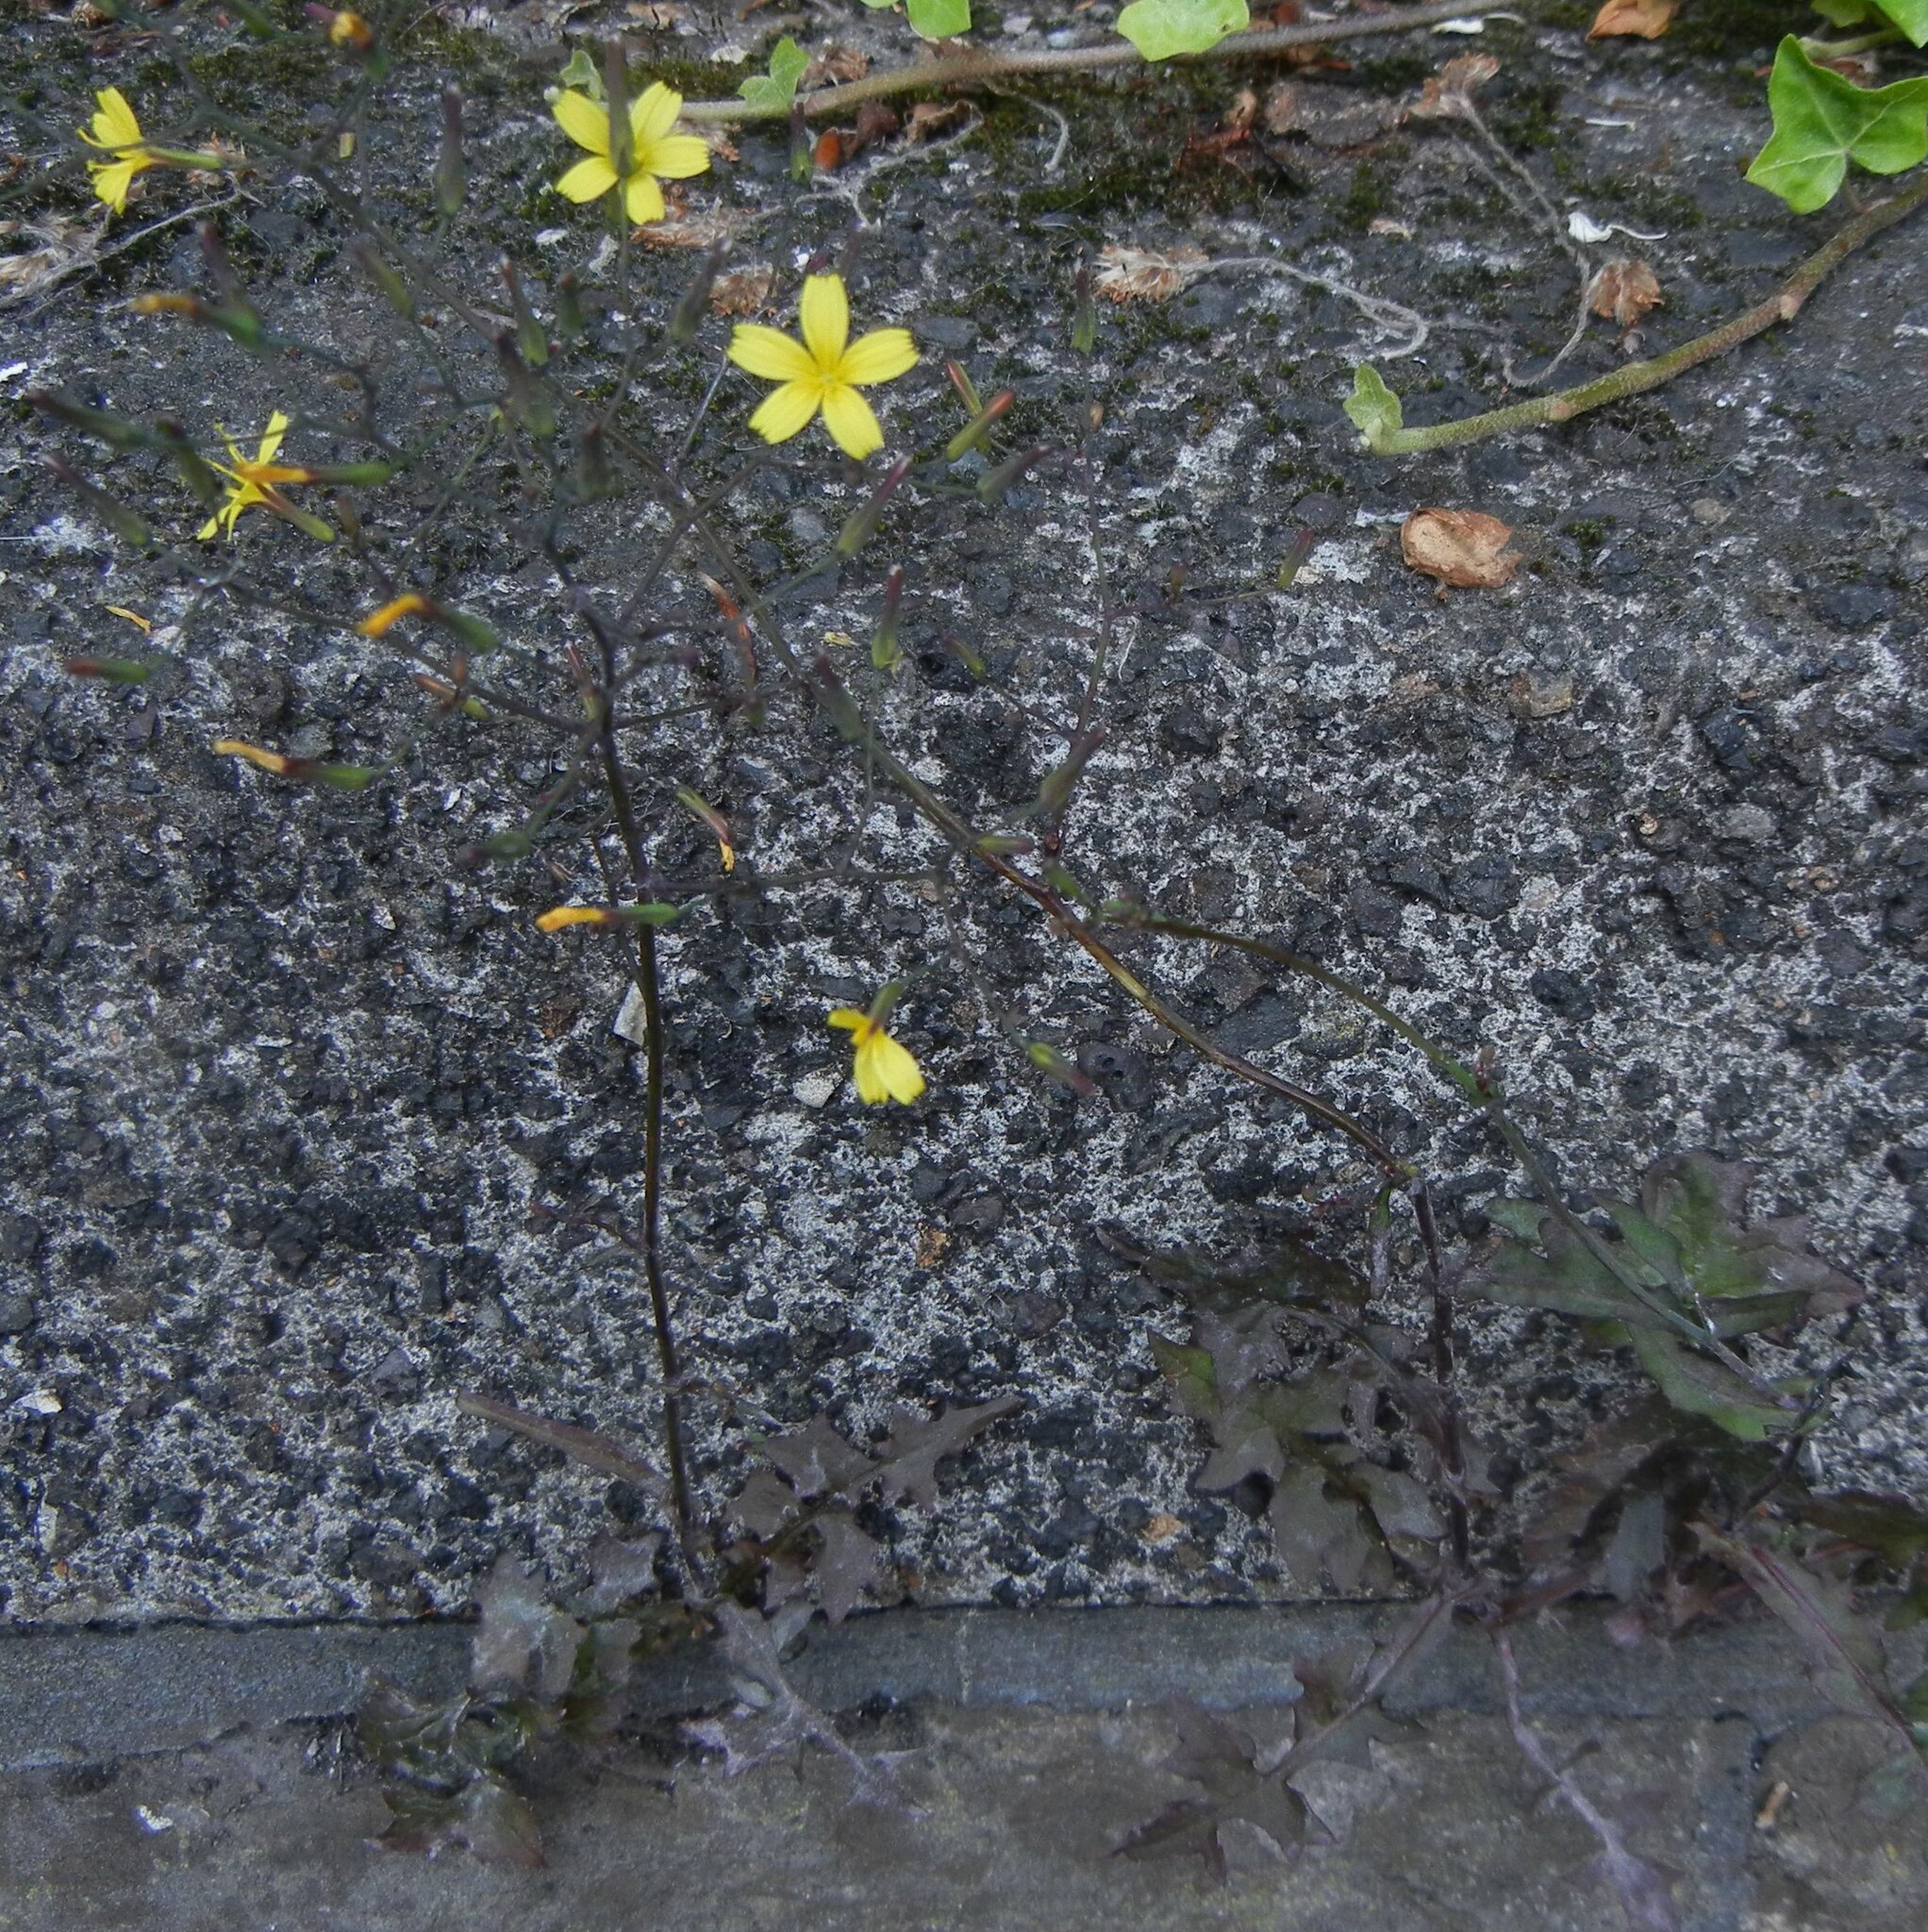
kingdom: Plantae
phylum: Tracheophyta
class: Magnoliopsida
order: Asterales
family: Asteraceae
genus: Mycelis
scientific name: Mycelis muralis
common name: Wall lettuce
